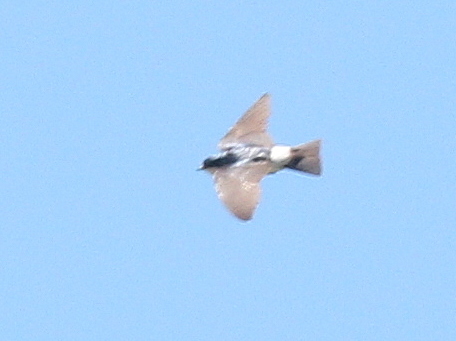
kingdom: Animalia
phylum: Chordata
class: Aves
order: Passeriformes
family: Hirundinidae
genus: Tachycineta
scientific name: Tachycineta leucorrhoa
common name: White-rumped swallow
